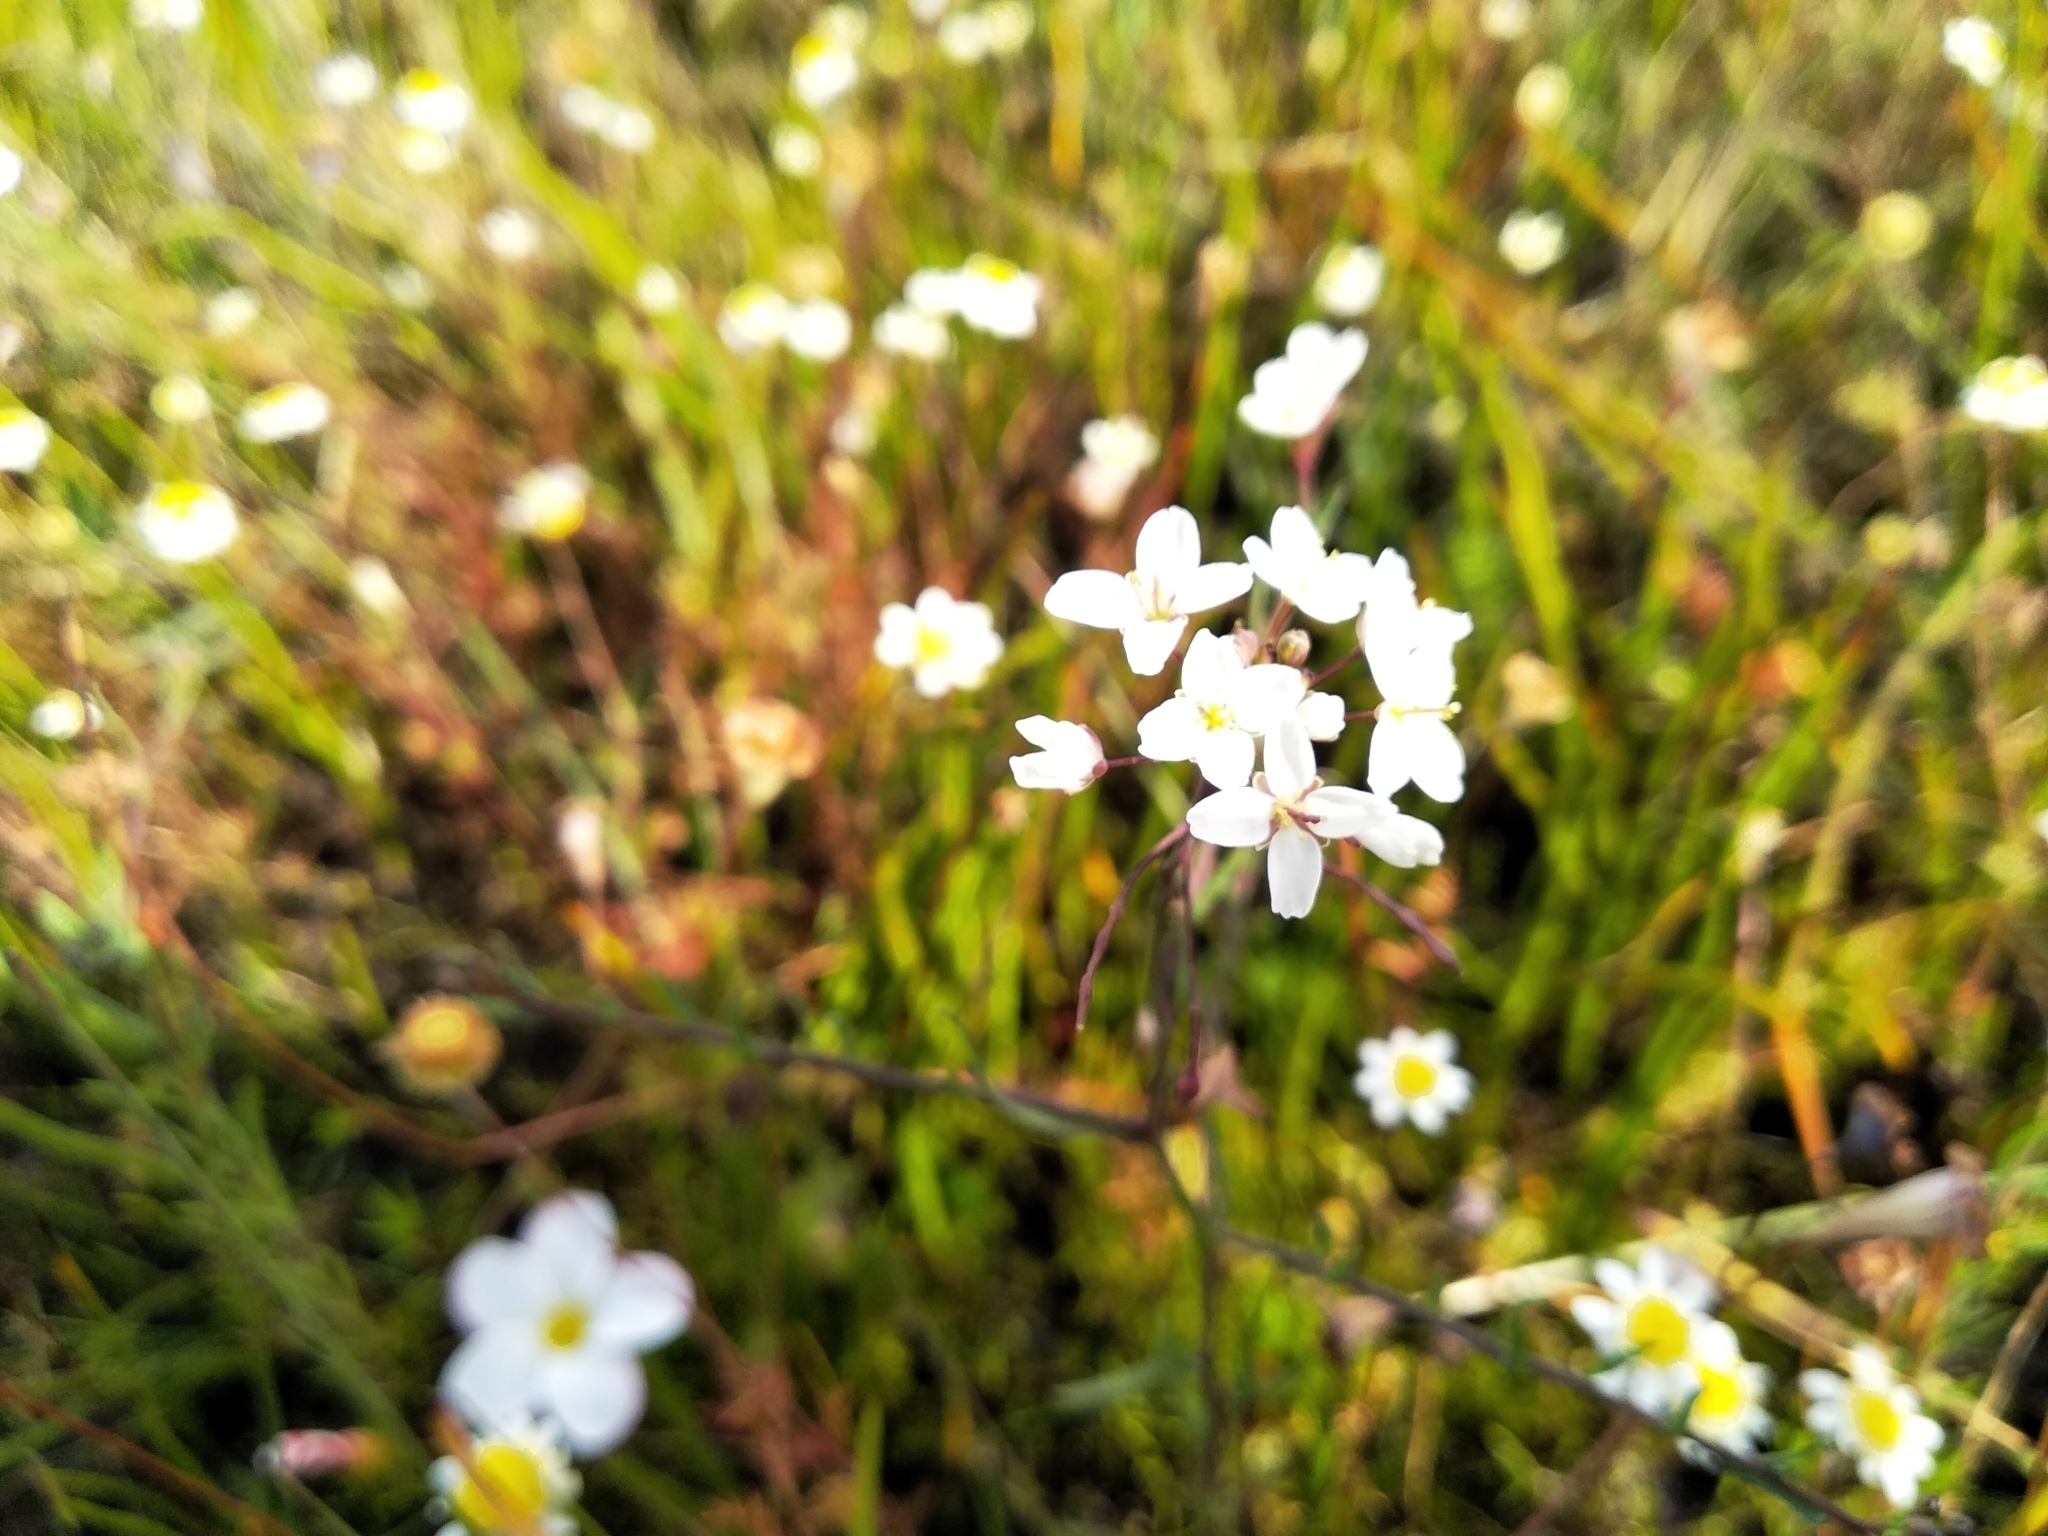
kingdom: Plantae
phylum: Tracheophyta
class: Magnoliopsida
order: Brassicales
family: Brassicaceae
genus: Heliophila
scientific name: Heliophila pusilla
